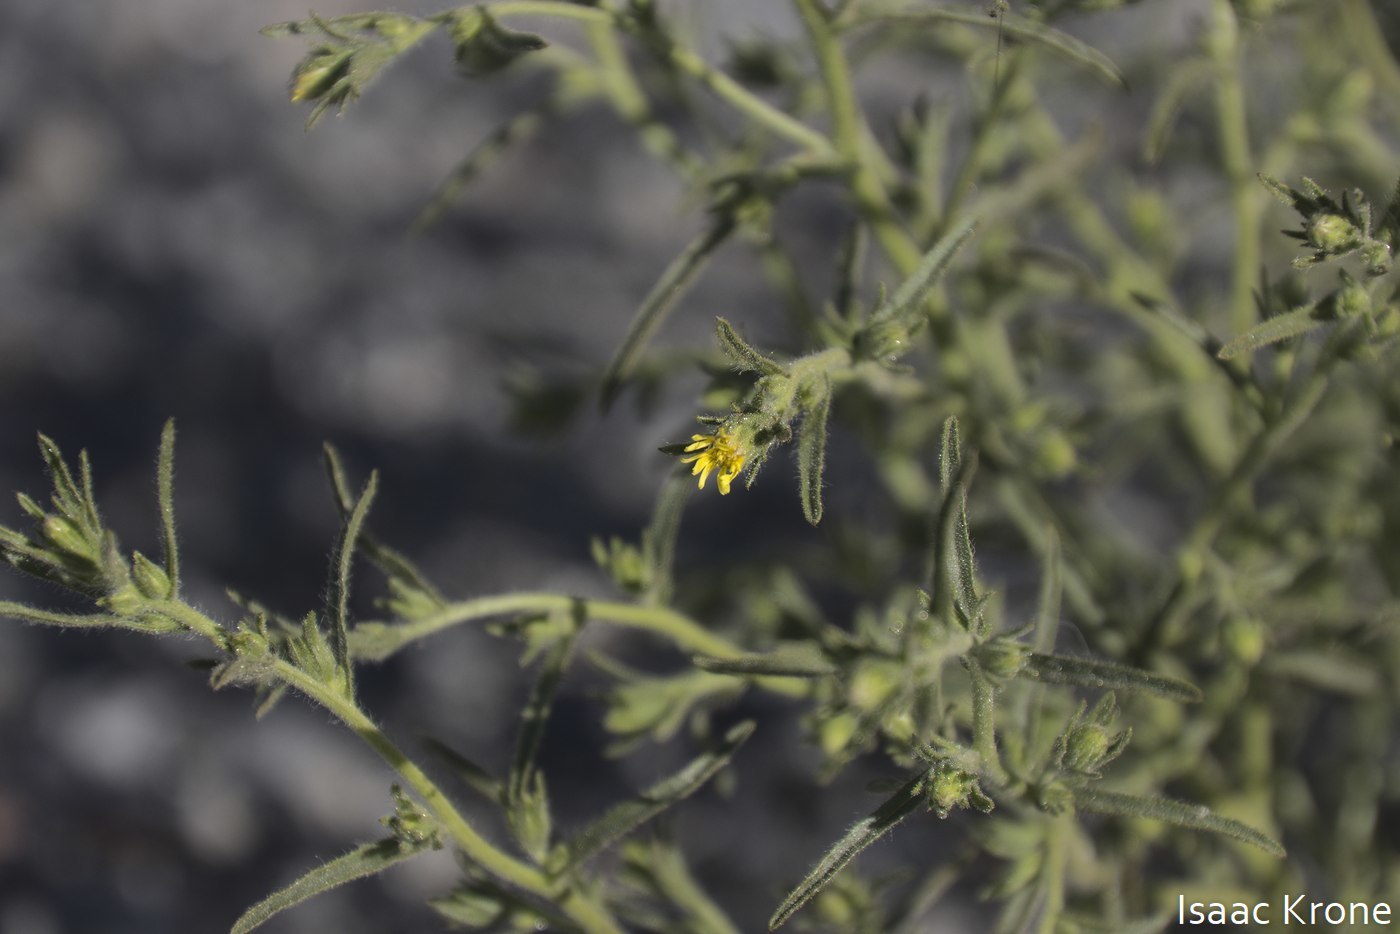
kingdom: Plantae
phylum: Tracheophyta
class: Magnoliopsida
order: Asterales
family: Asteraceae
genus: Dittrichia
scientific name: Dittrichia graveolens
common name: Stinking fleabane
